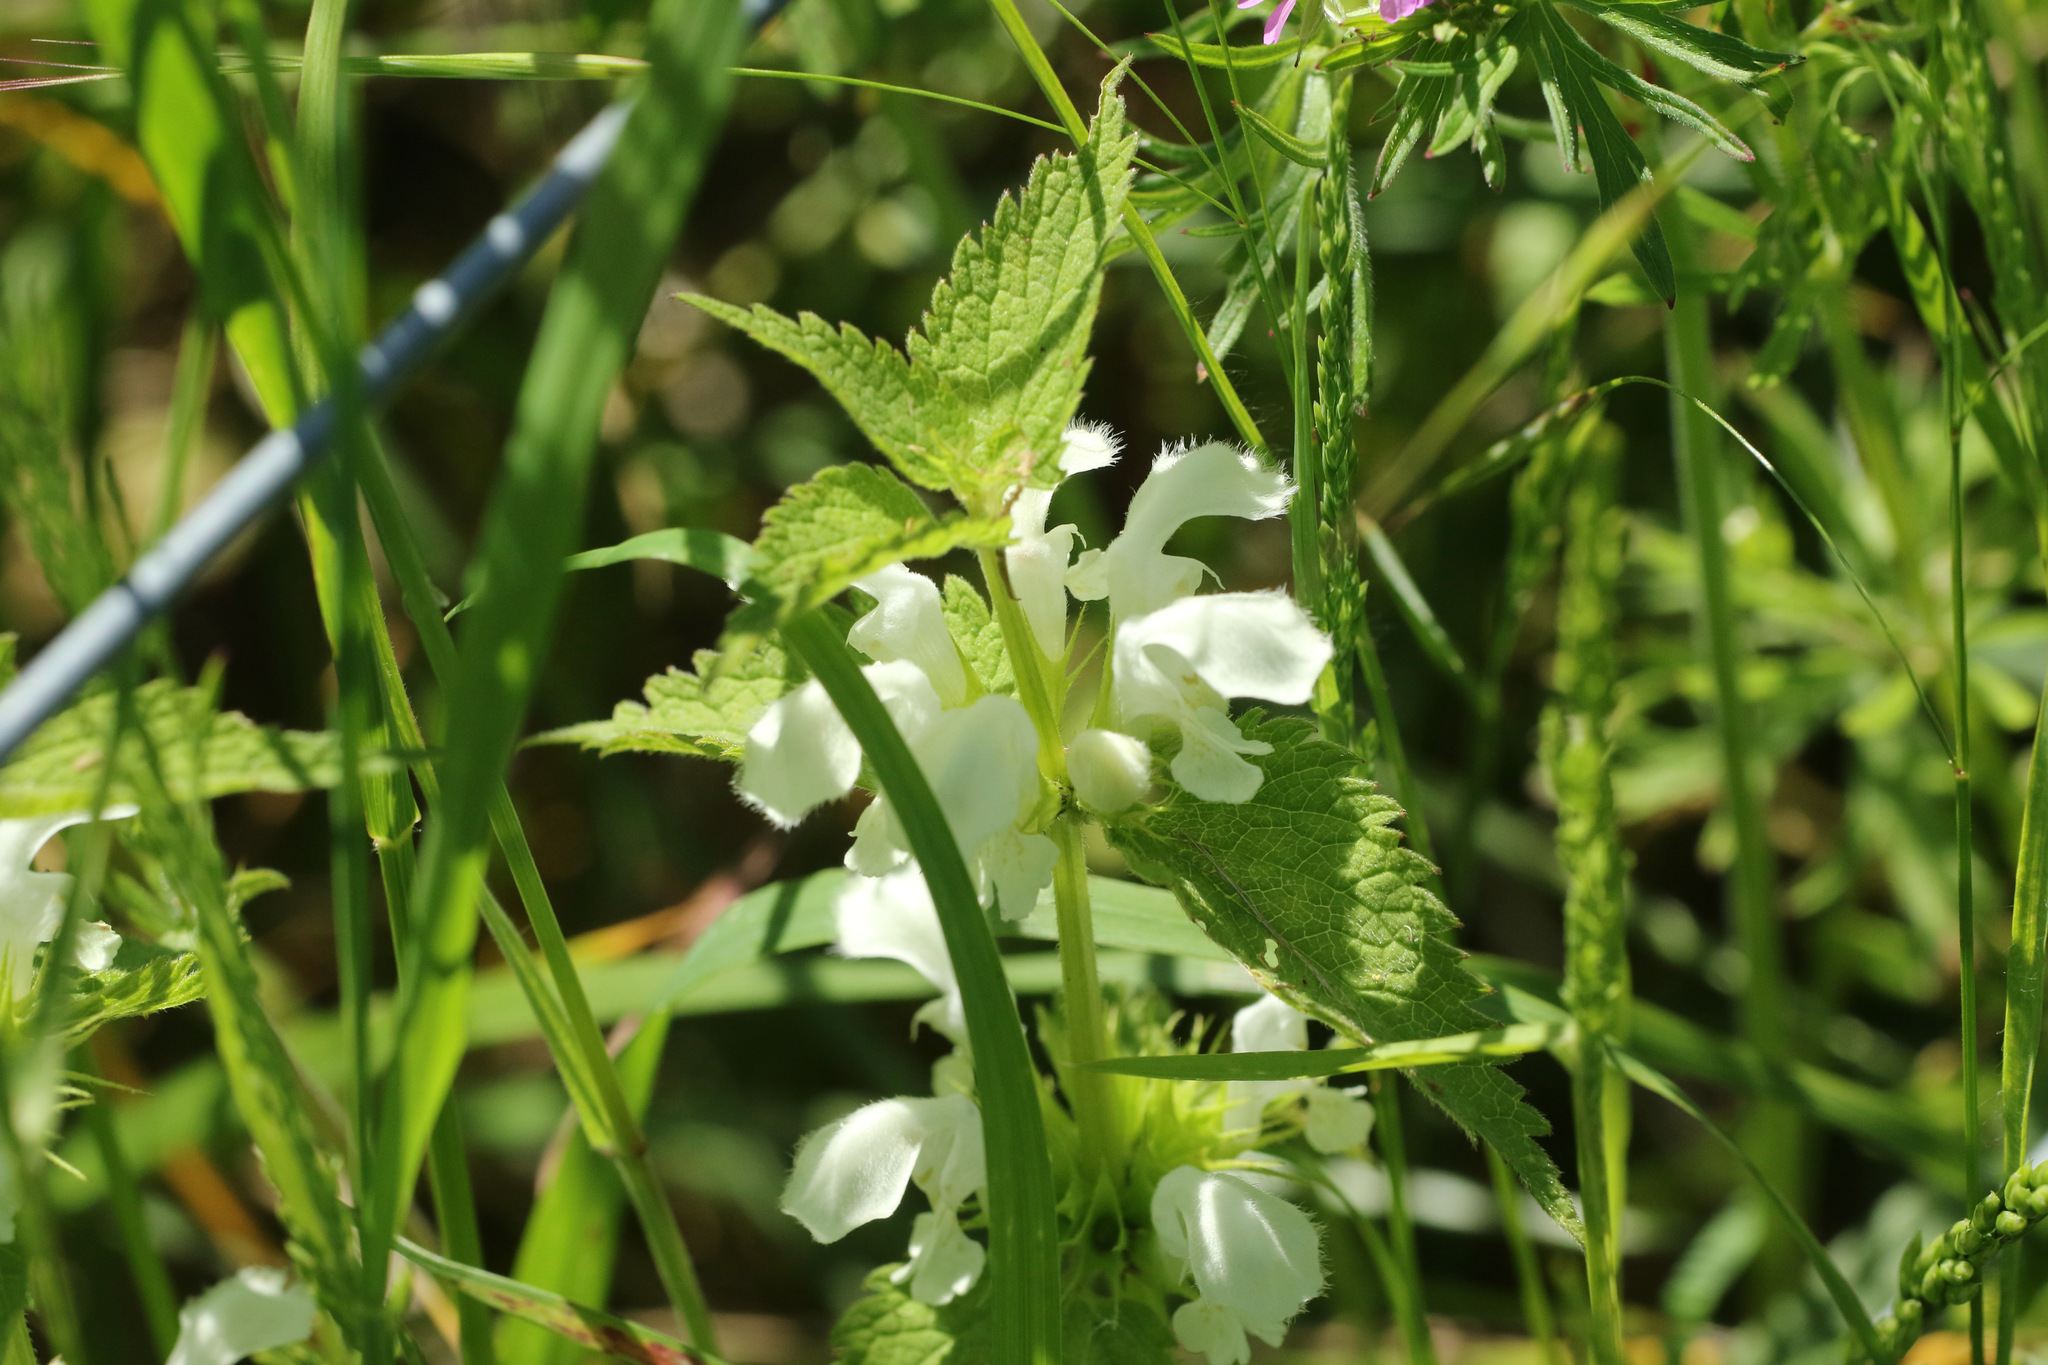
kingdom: Plantae
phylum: Tracheophyta
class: Magnoliopsida
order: Lamiales
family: Lamiaceae
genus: Lamium
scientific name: Lamium album
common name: White dead-nettle
